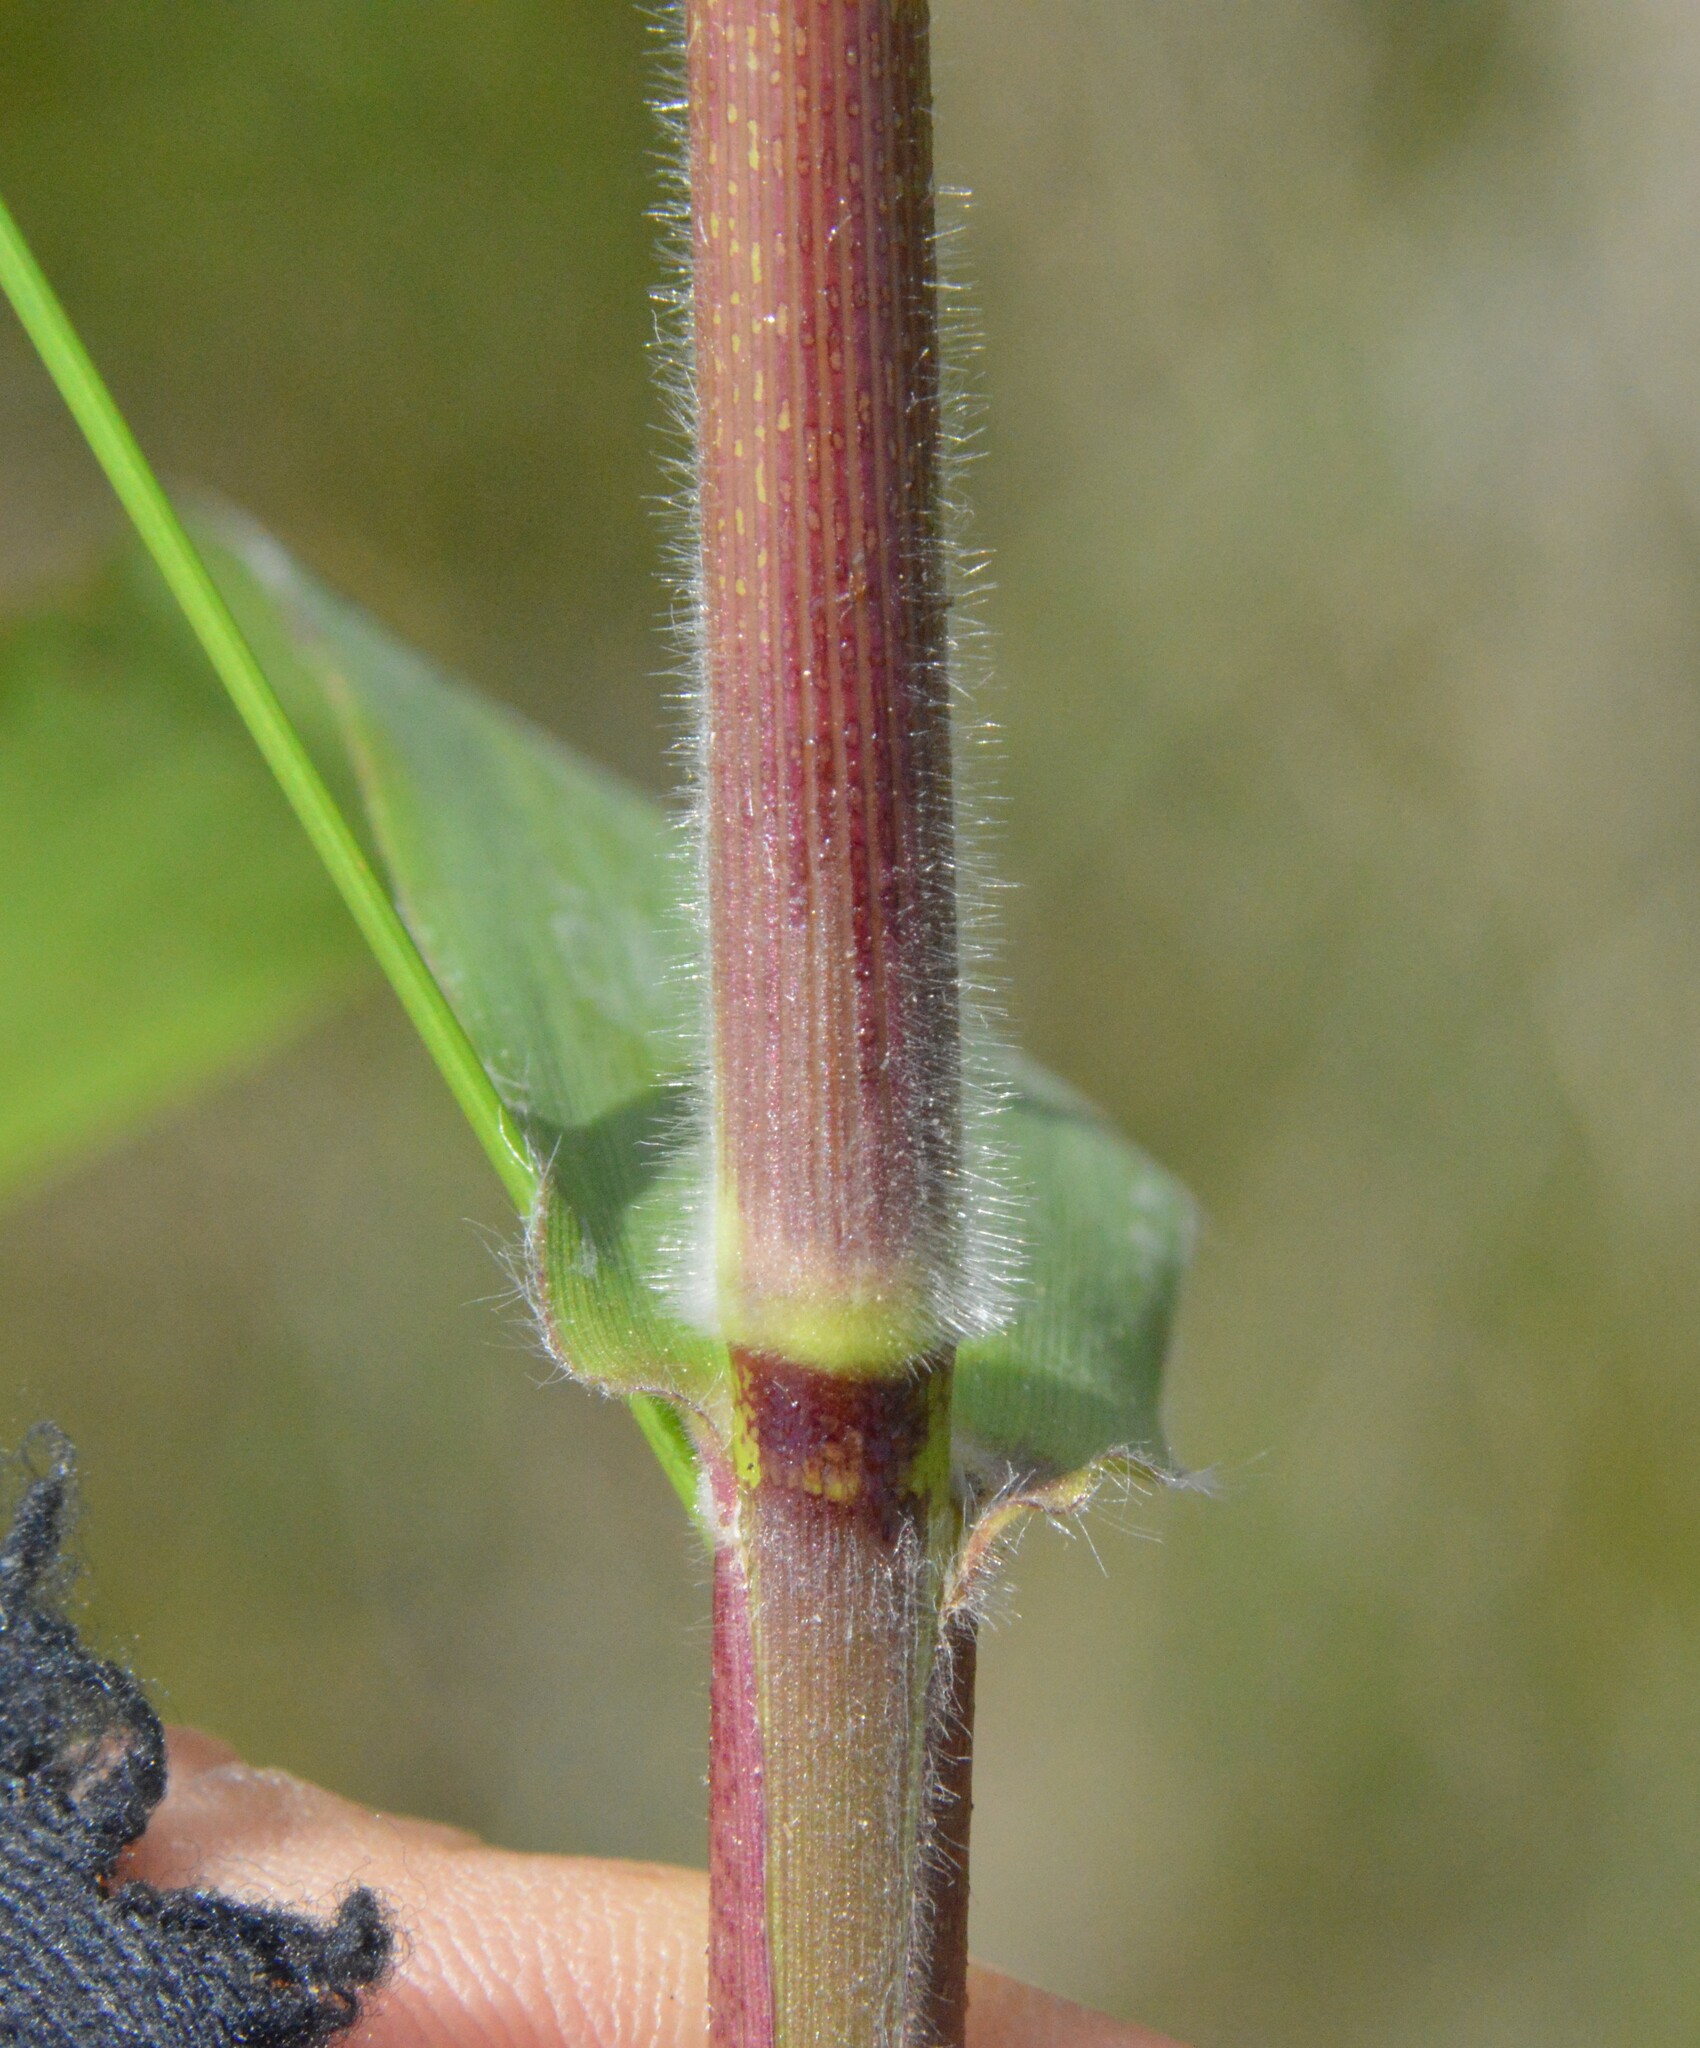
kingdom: Plantae
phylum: Tracheophyta
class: Liliopsida
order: Poales
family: Poaceae
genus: Dichanthelium
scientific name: Dichanthelium scoparium
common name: Velvety panic grass
